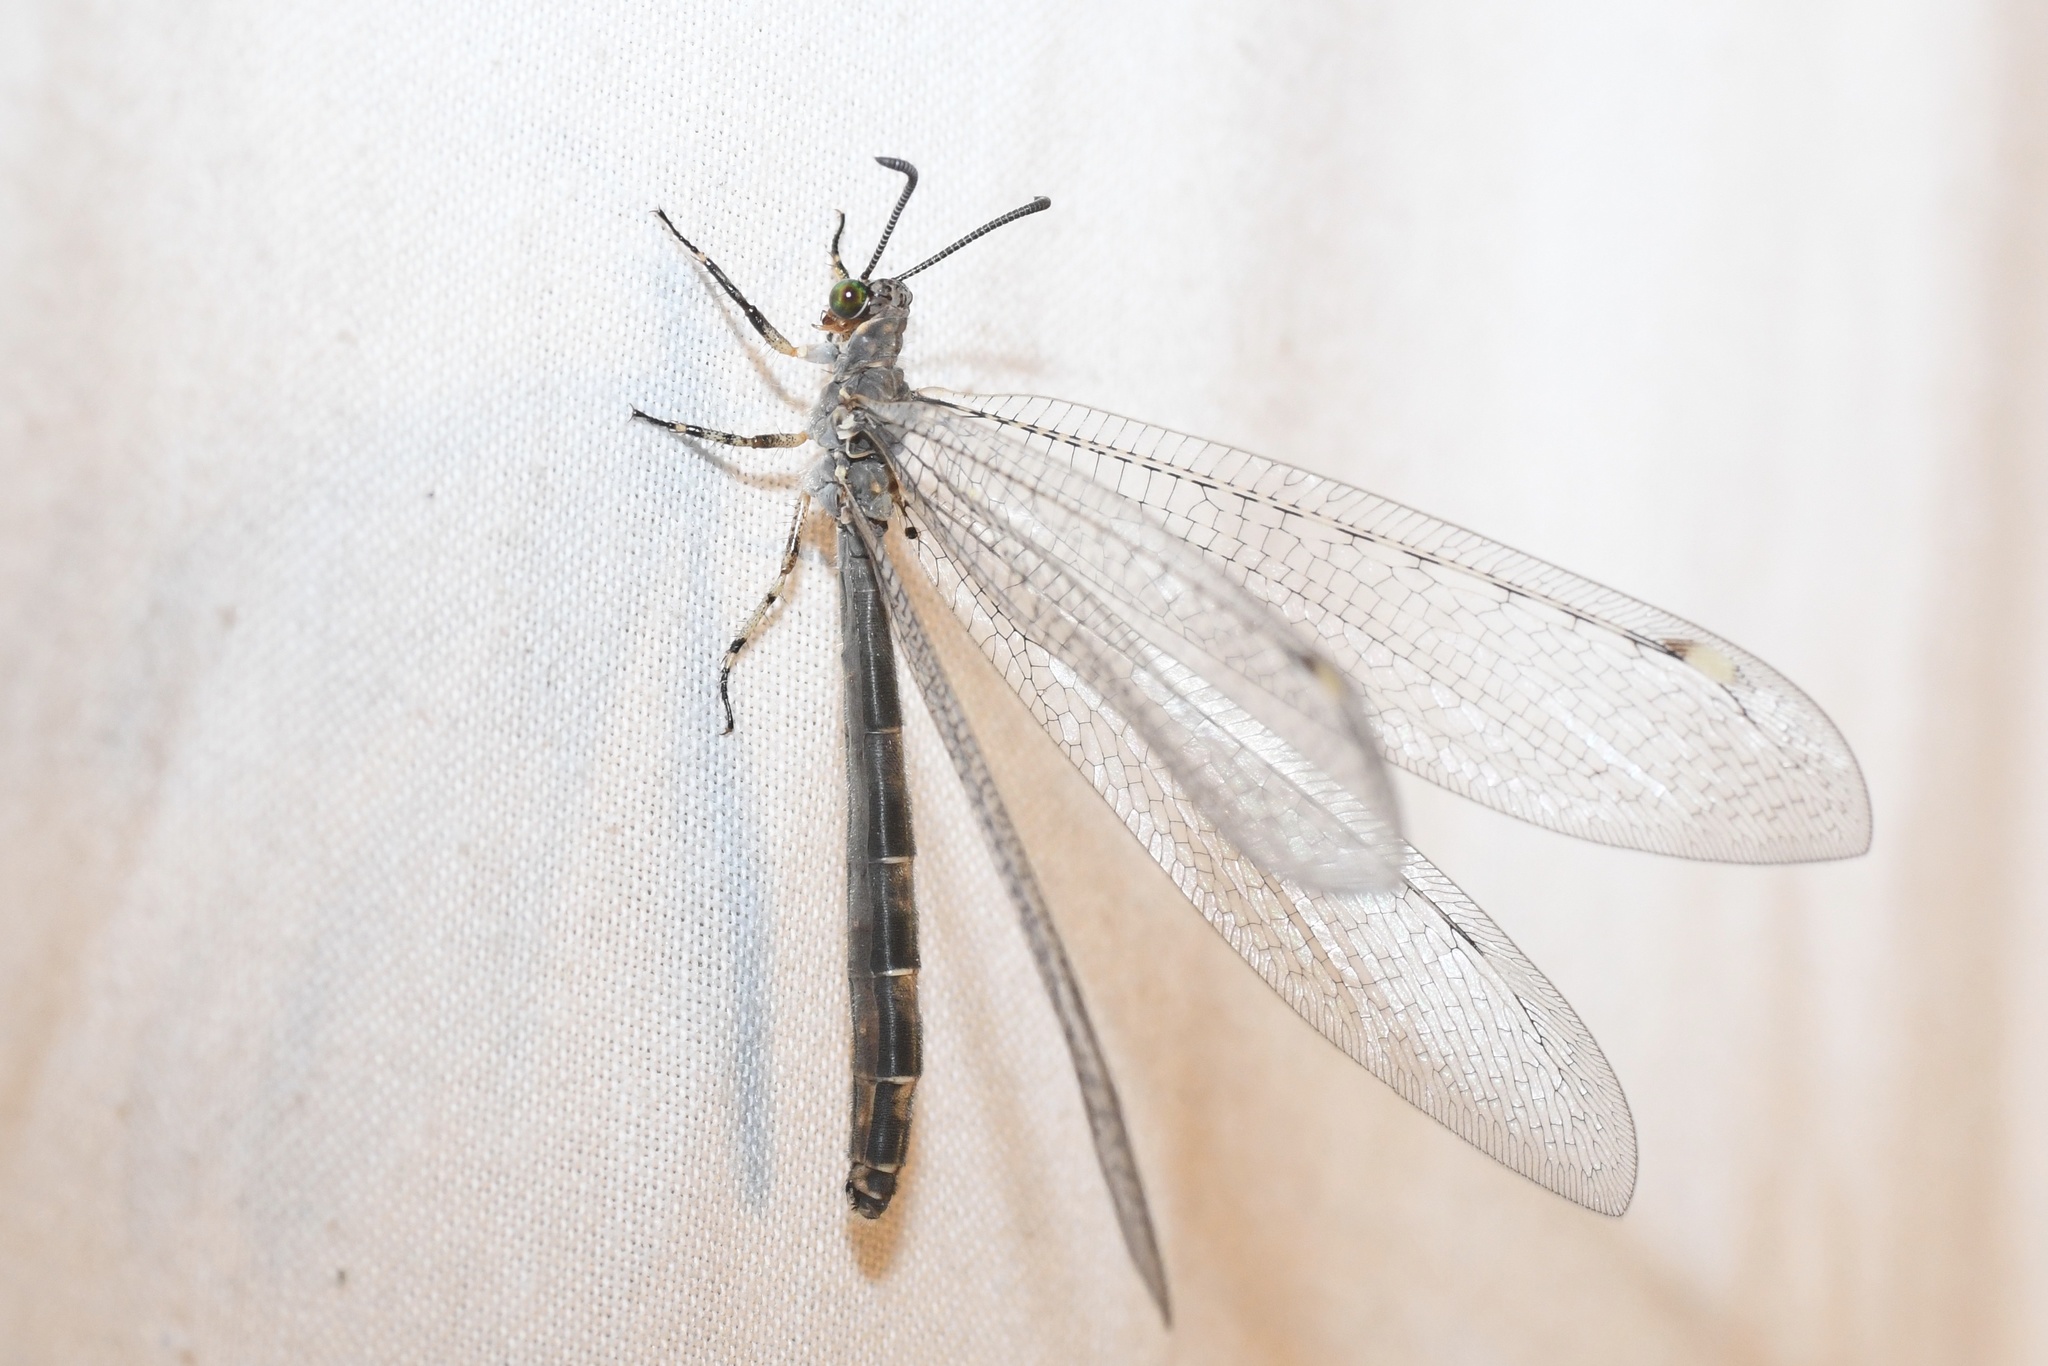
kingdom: Animalia
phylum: Arthropoda
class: Insecta
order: Neuroptera
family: Myrmeleontidae
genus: Myrmeleon
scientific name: Myrmeleon immaculatus
